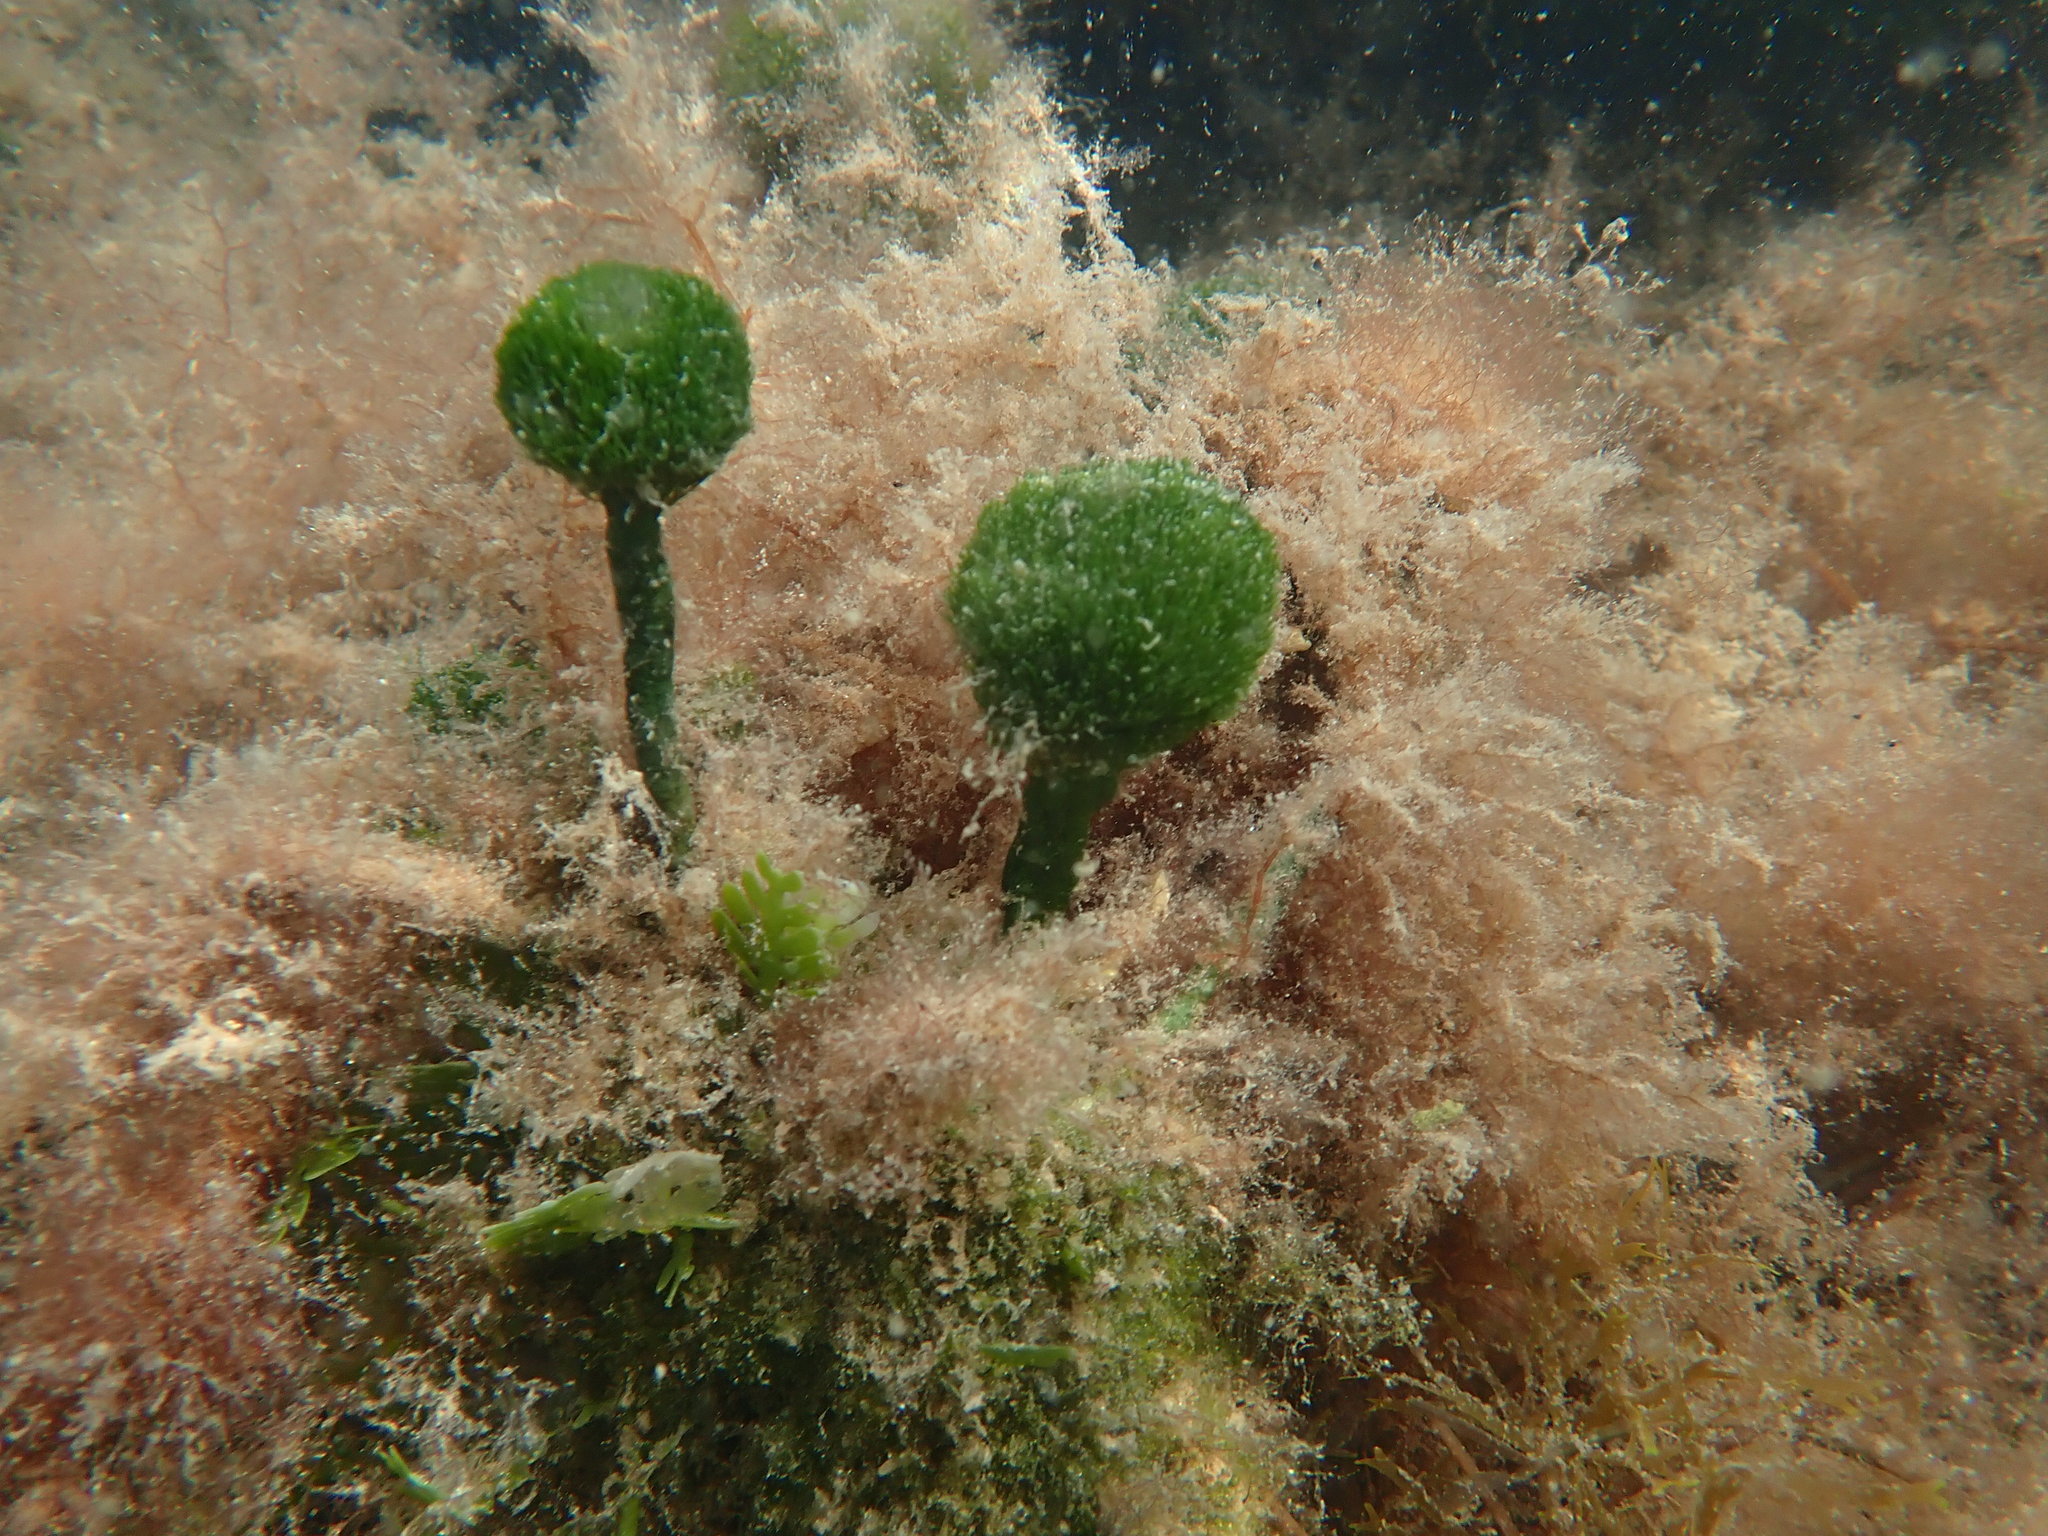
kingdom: Plantae
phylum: Chlorophyta
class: Ulvophyceae
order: Bryopsidales
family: Udoteaceae
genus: Penicillus
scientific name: Penicillus capitatus
